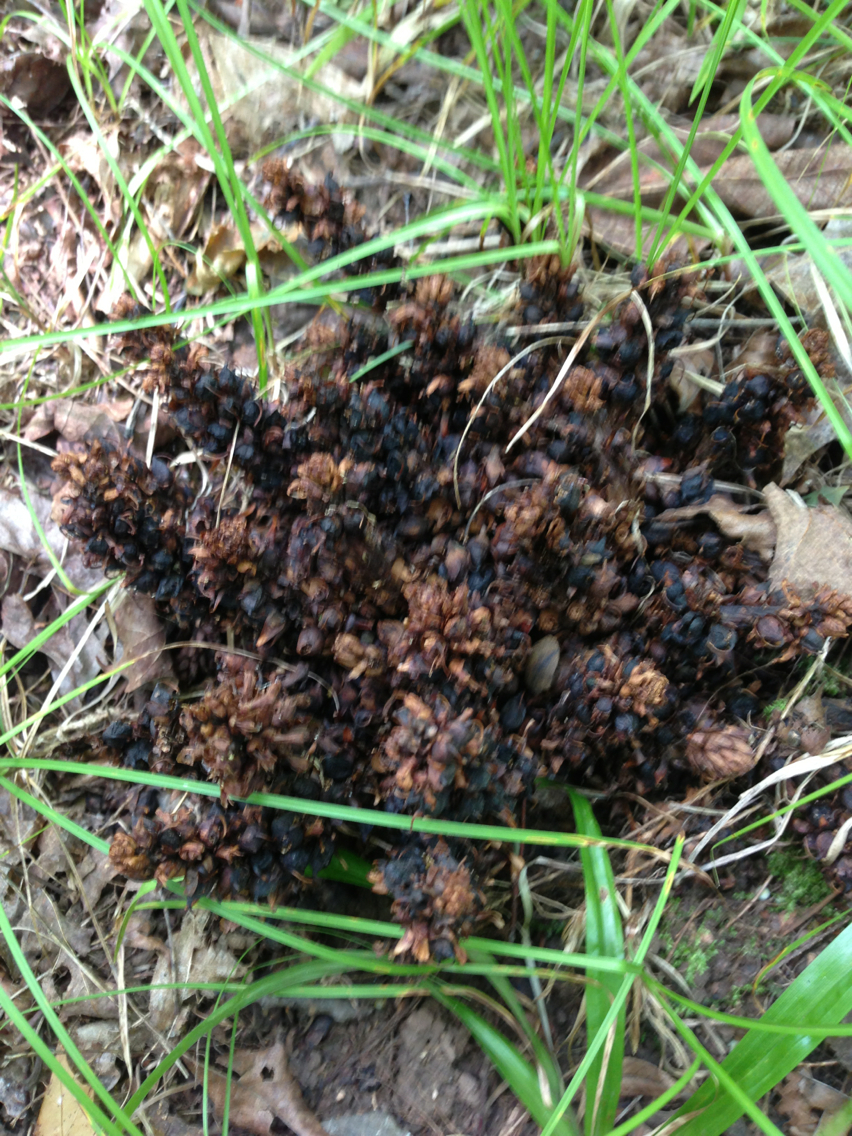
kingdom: Plantae
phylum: Tracheophyta
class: Magnoliopsida
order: Lamiales
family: Orobanchaceae
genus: Conopholis
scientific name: Conopholis americana
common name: American cancer-root
